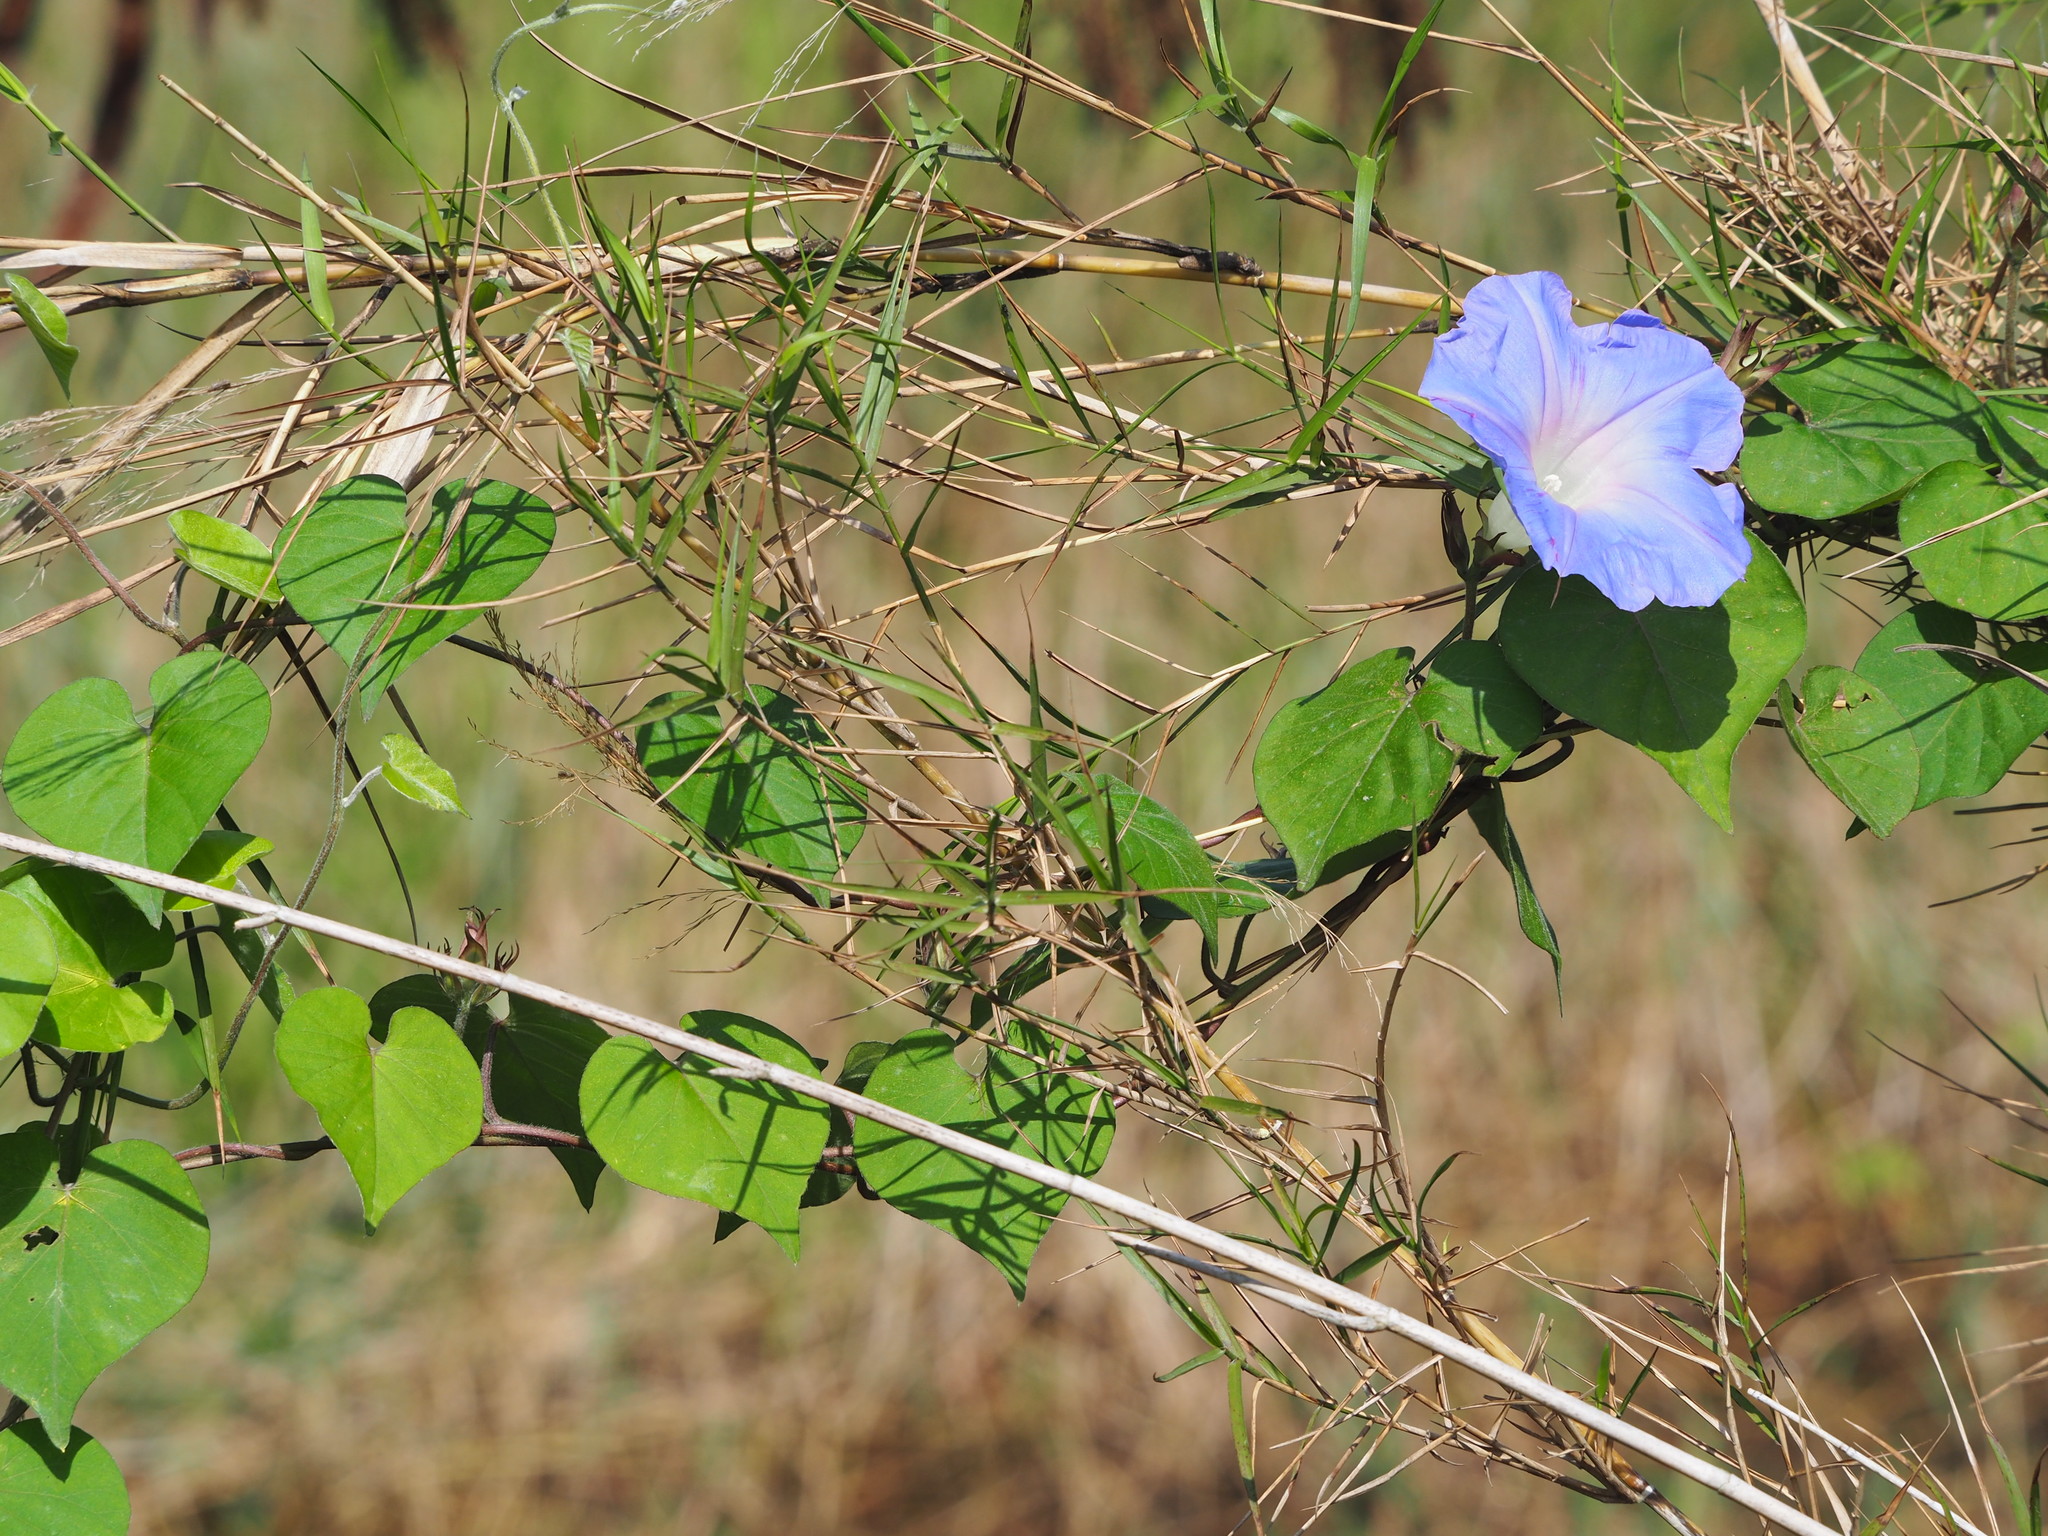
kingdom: Plantae
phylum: Tracheophyta
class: Magnoliopsida
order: Solanales
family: Convolvulaceae
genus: Ipomoea
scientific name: Ipomoea indica
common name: Blue dawnflower
